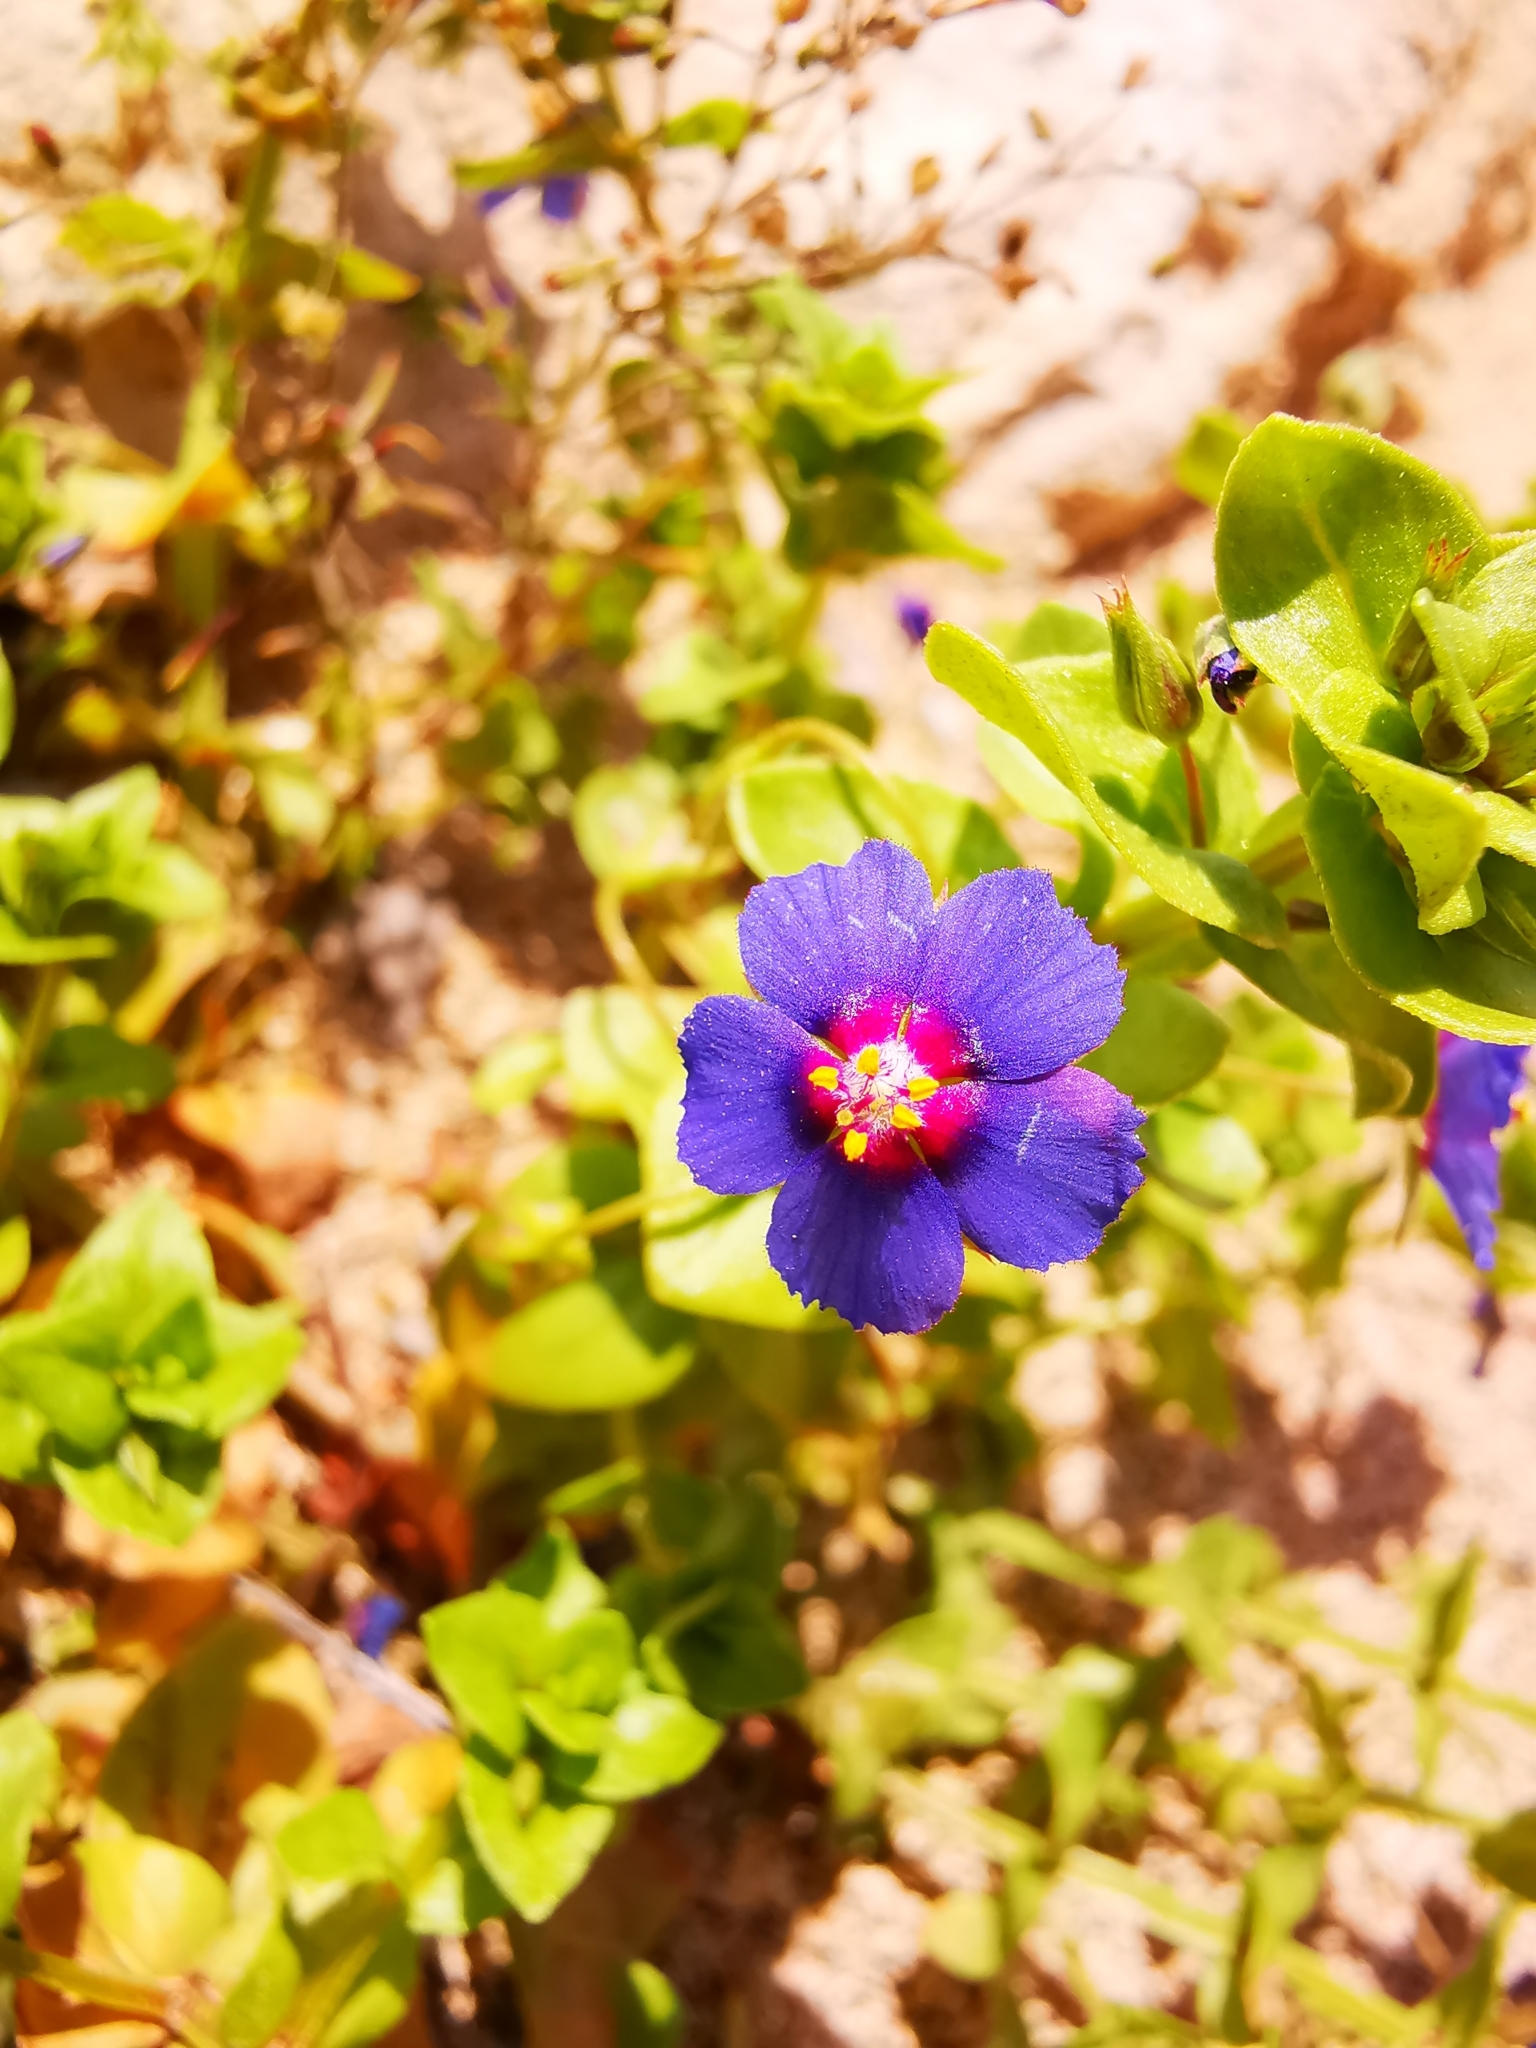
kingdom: Plantae
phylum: Tracheophyta
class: Magnoliopsida
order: Ericales
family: Primulaceae
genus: Lysimachia
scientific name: Lysimachia arvensis
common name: Scarlet pimpernel
